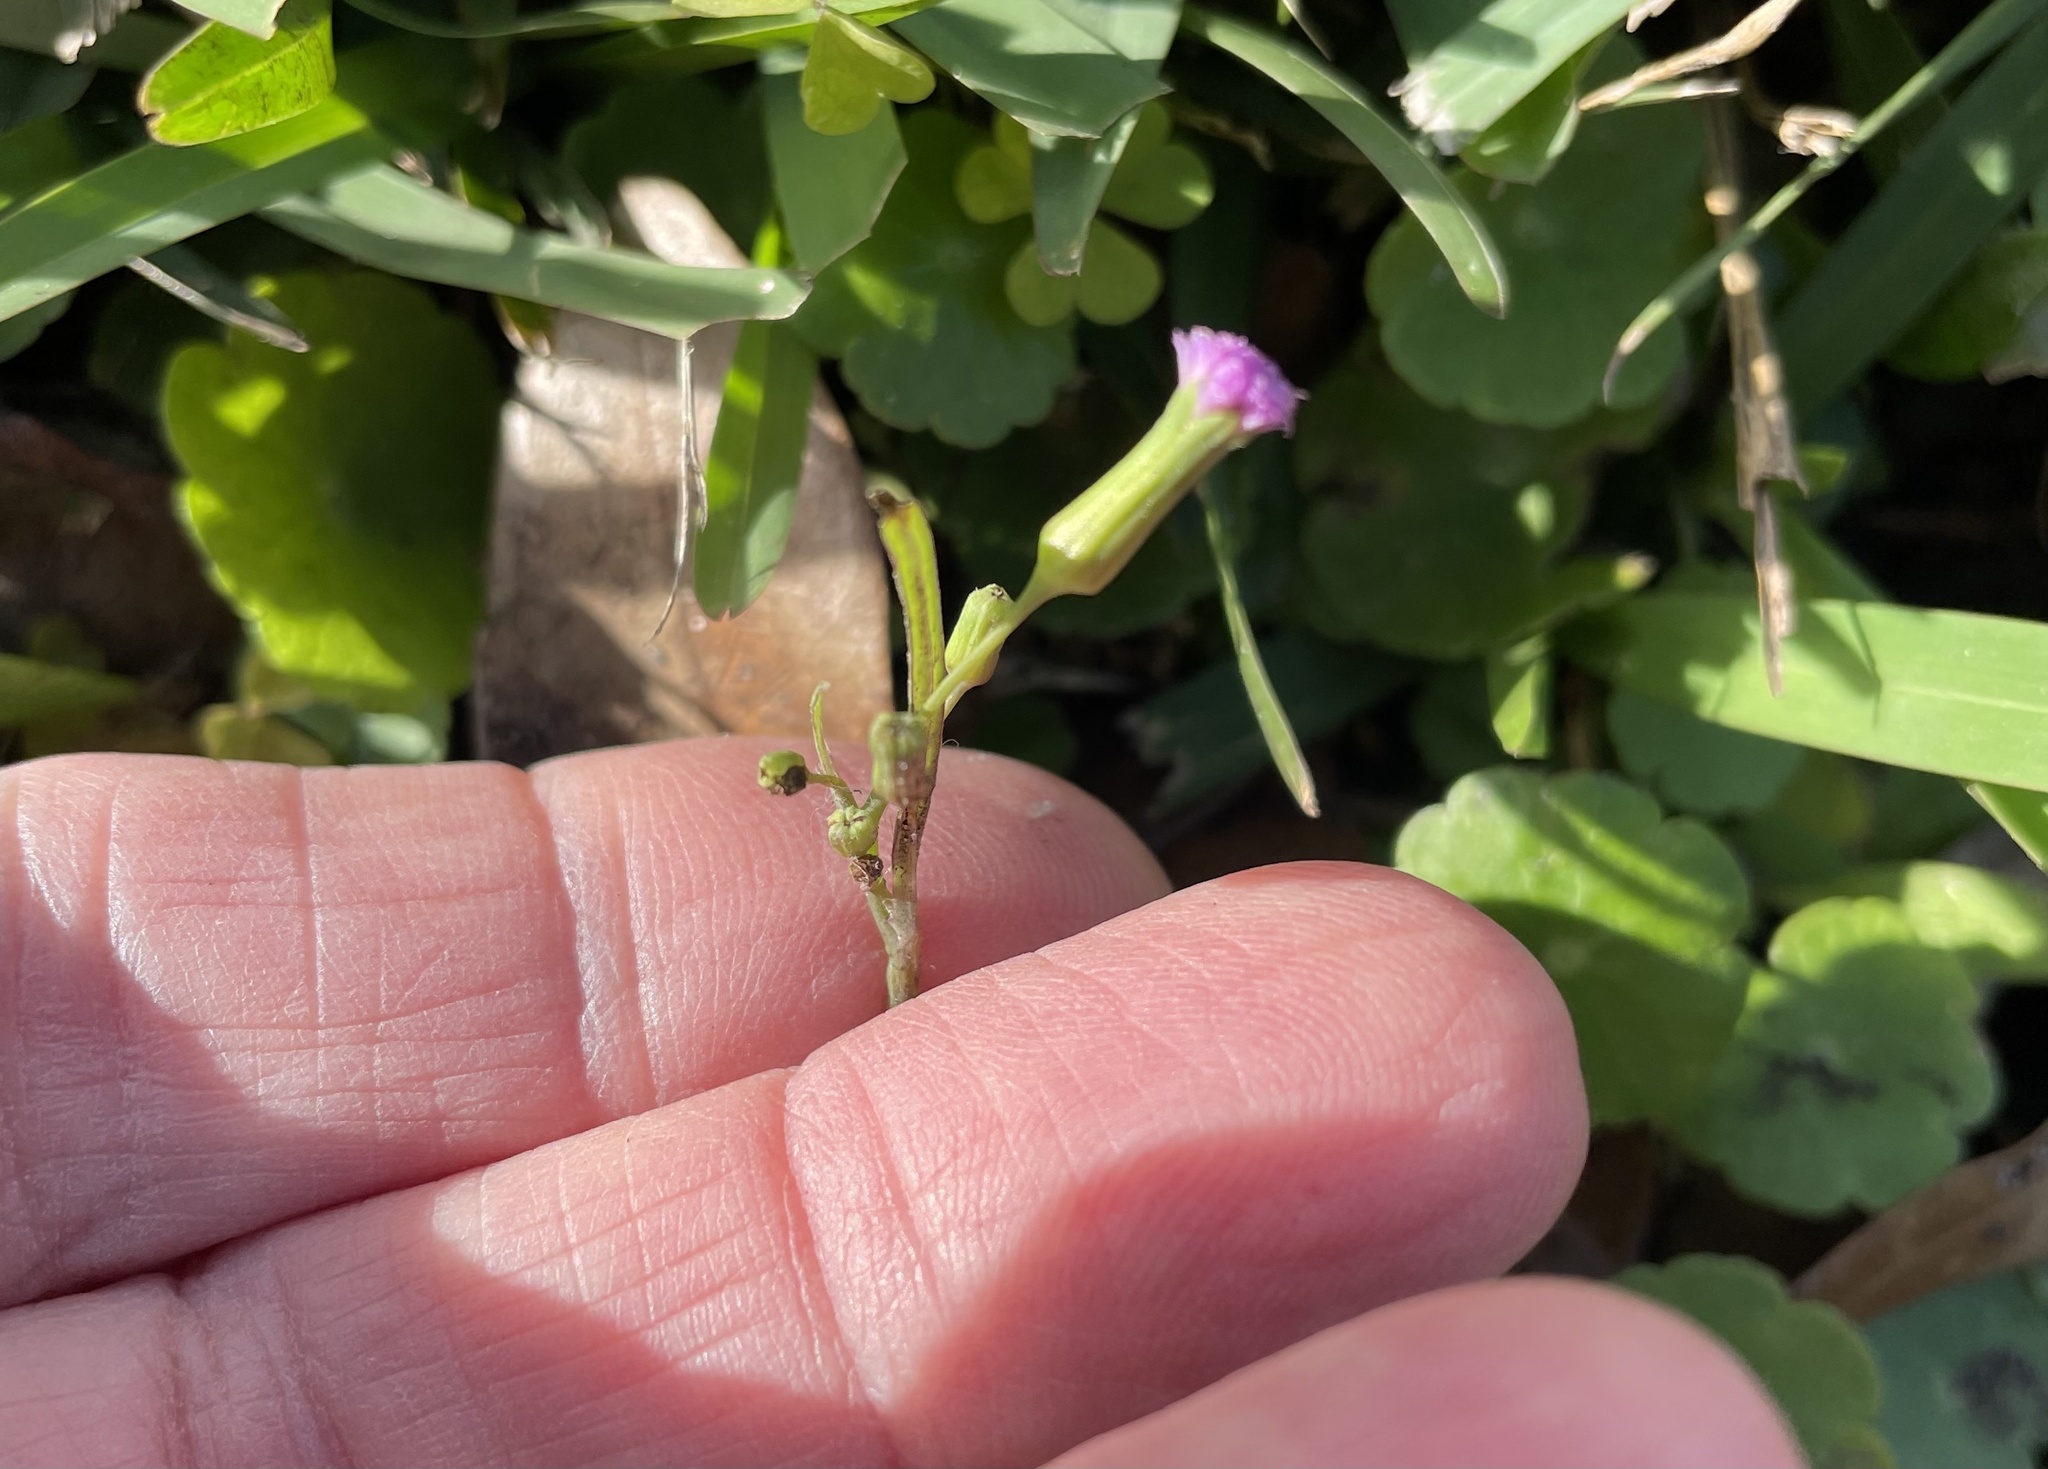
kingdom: Plantae
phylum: Tracheophyta
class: Magnoliopsida
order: Asterales
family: Asteraceae
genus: Emilia
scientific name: Emilia sonchifolia
